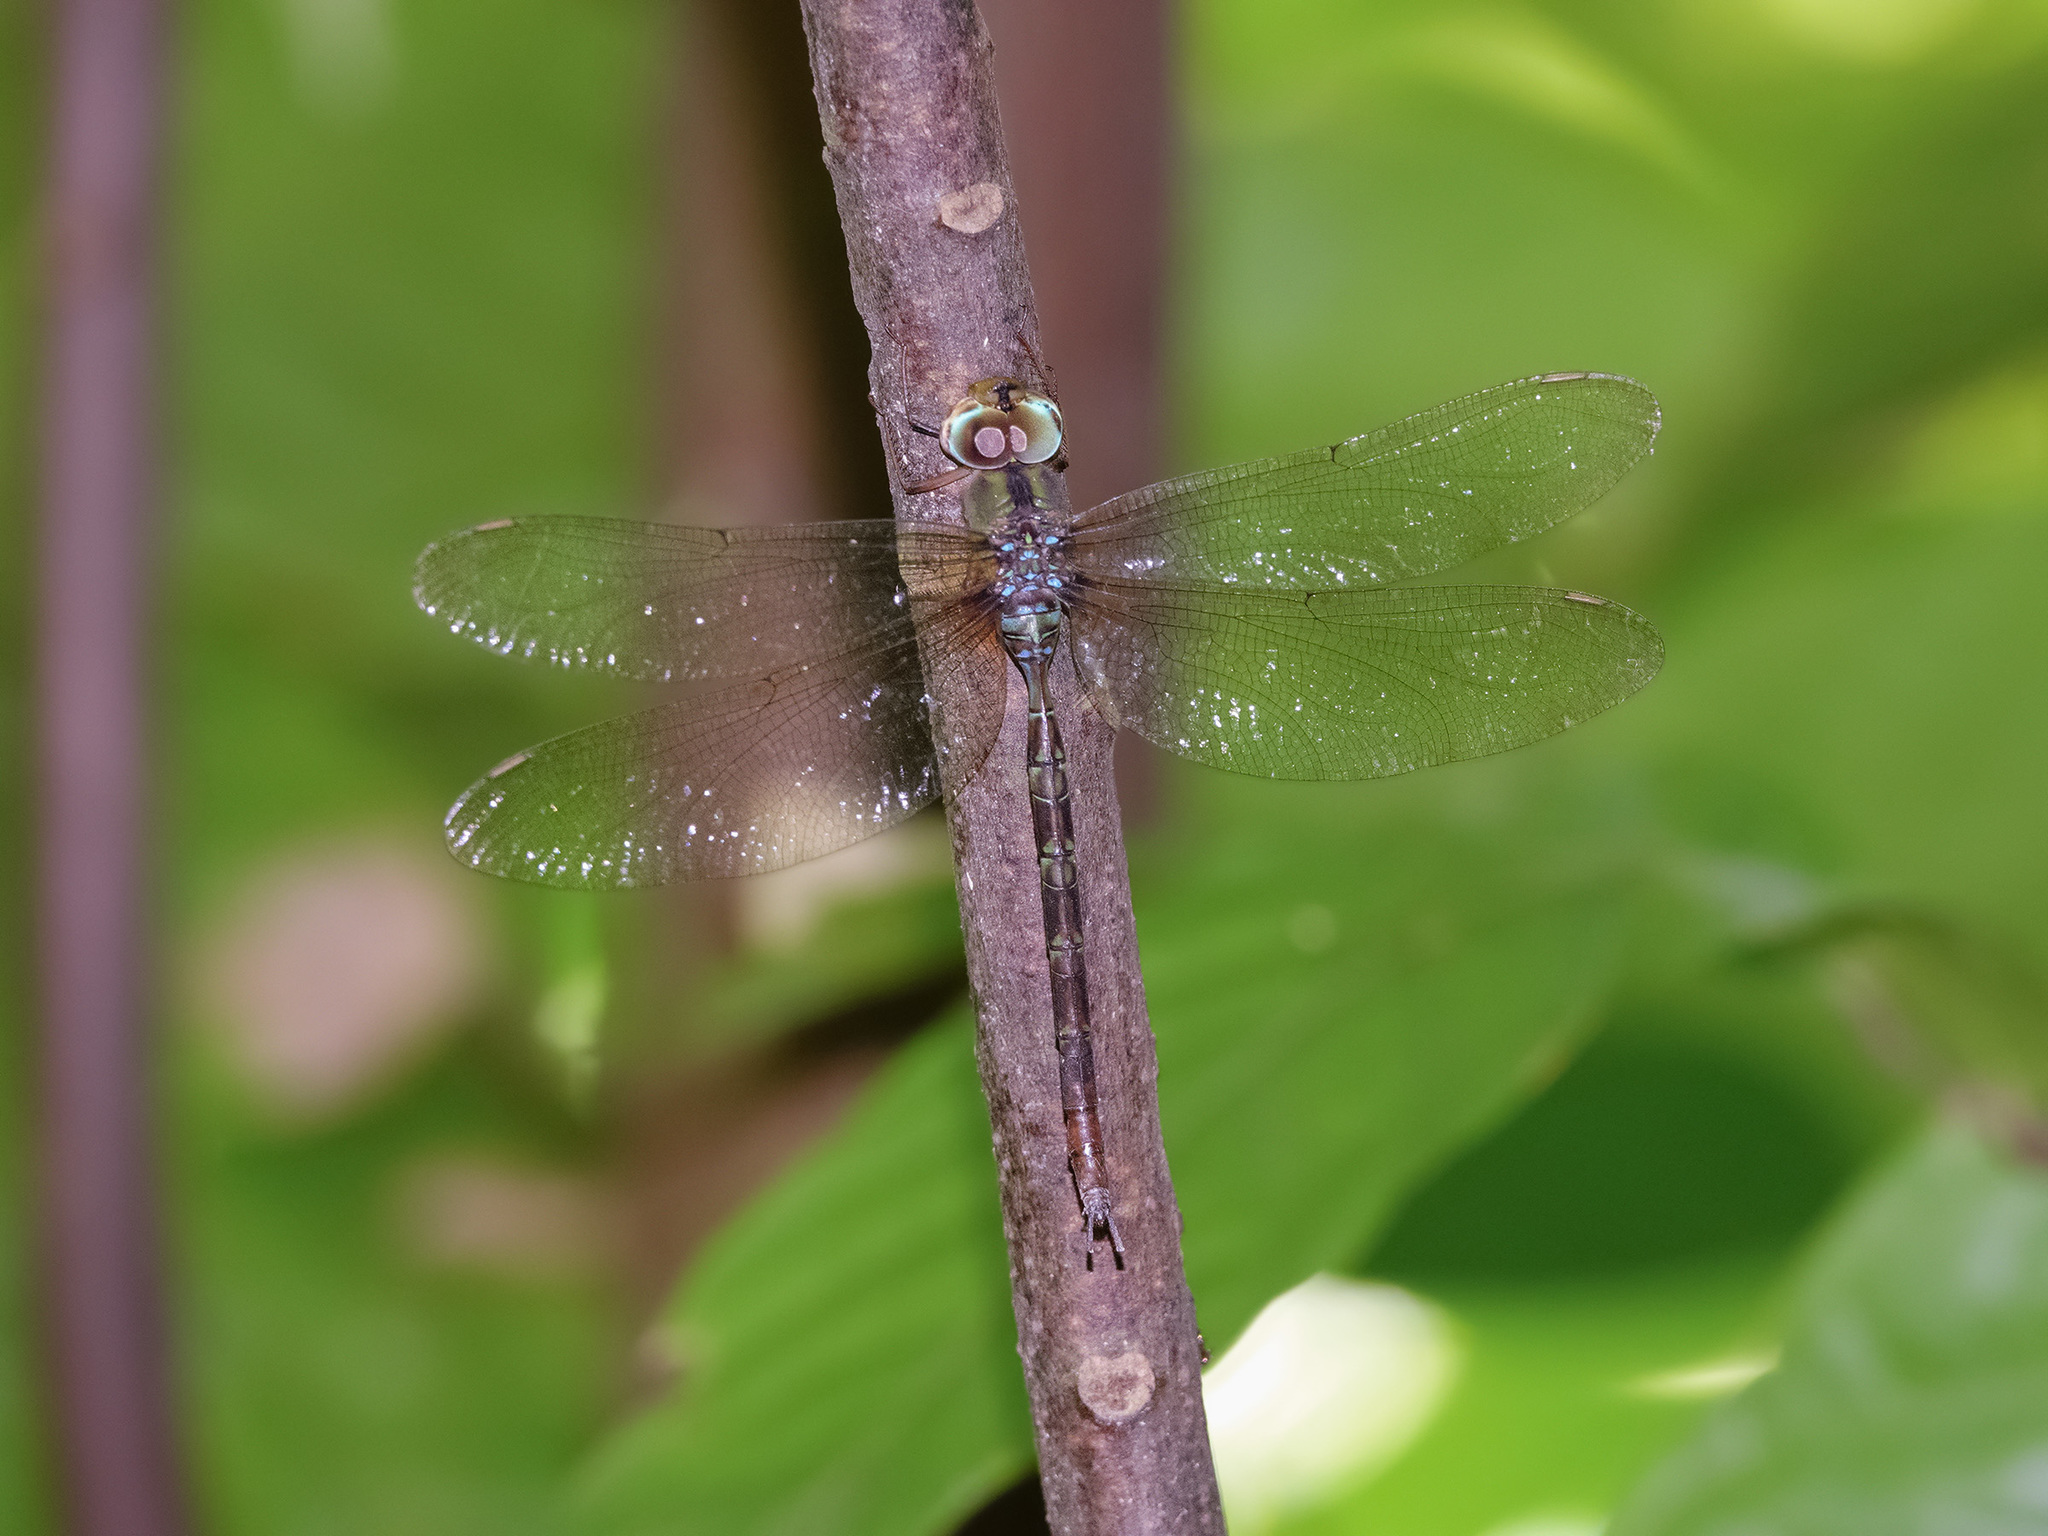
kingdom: Animalia
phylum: Arthropoda
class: Insecta
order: Odonata
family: Aeshnidae
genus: Gynacantha
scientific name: Gynacantha subinterrupta
